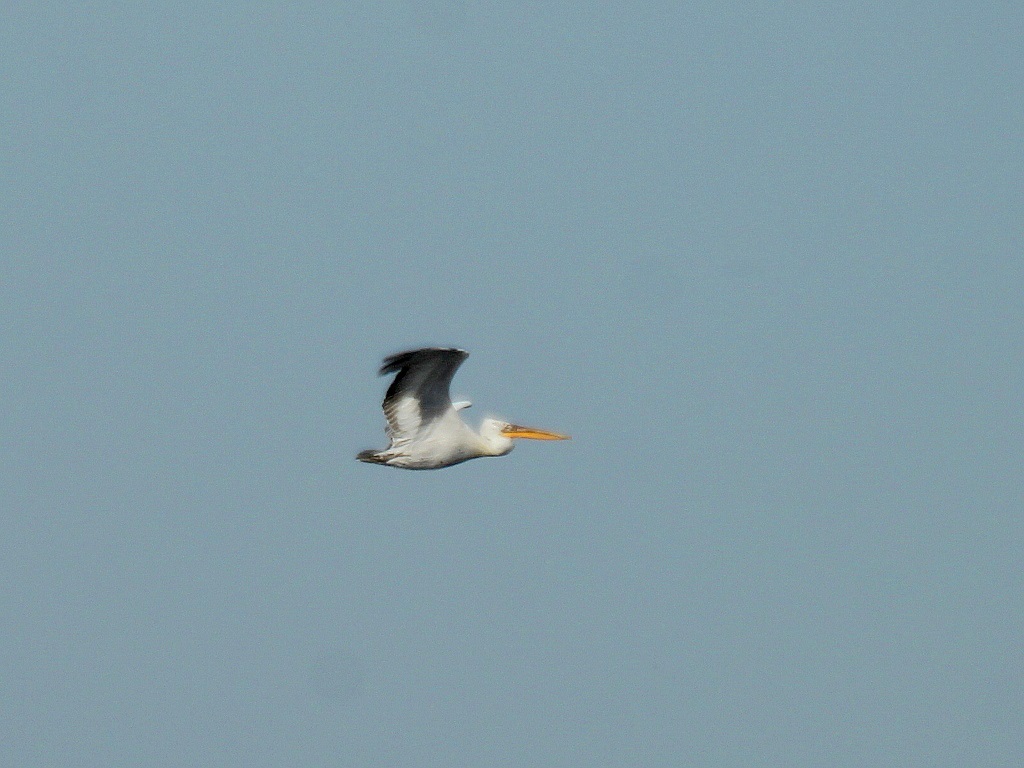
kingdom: Animalia
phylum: Chordata
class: Aves
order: Pelecaniformes
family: Pelecanidae
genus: Pelecanus
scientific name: Pelecanus crispus
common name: Dalmatian pelican
